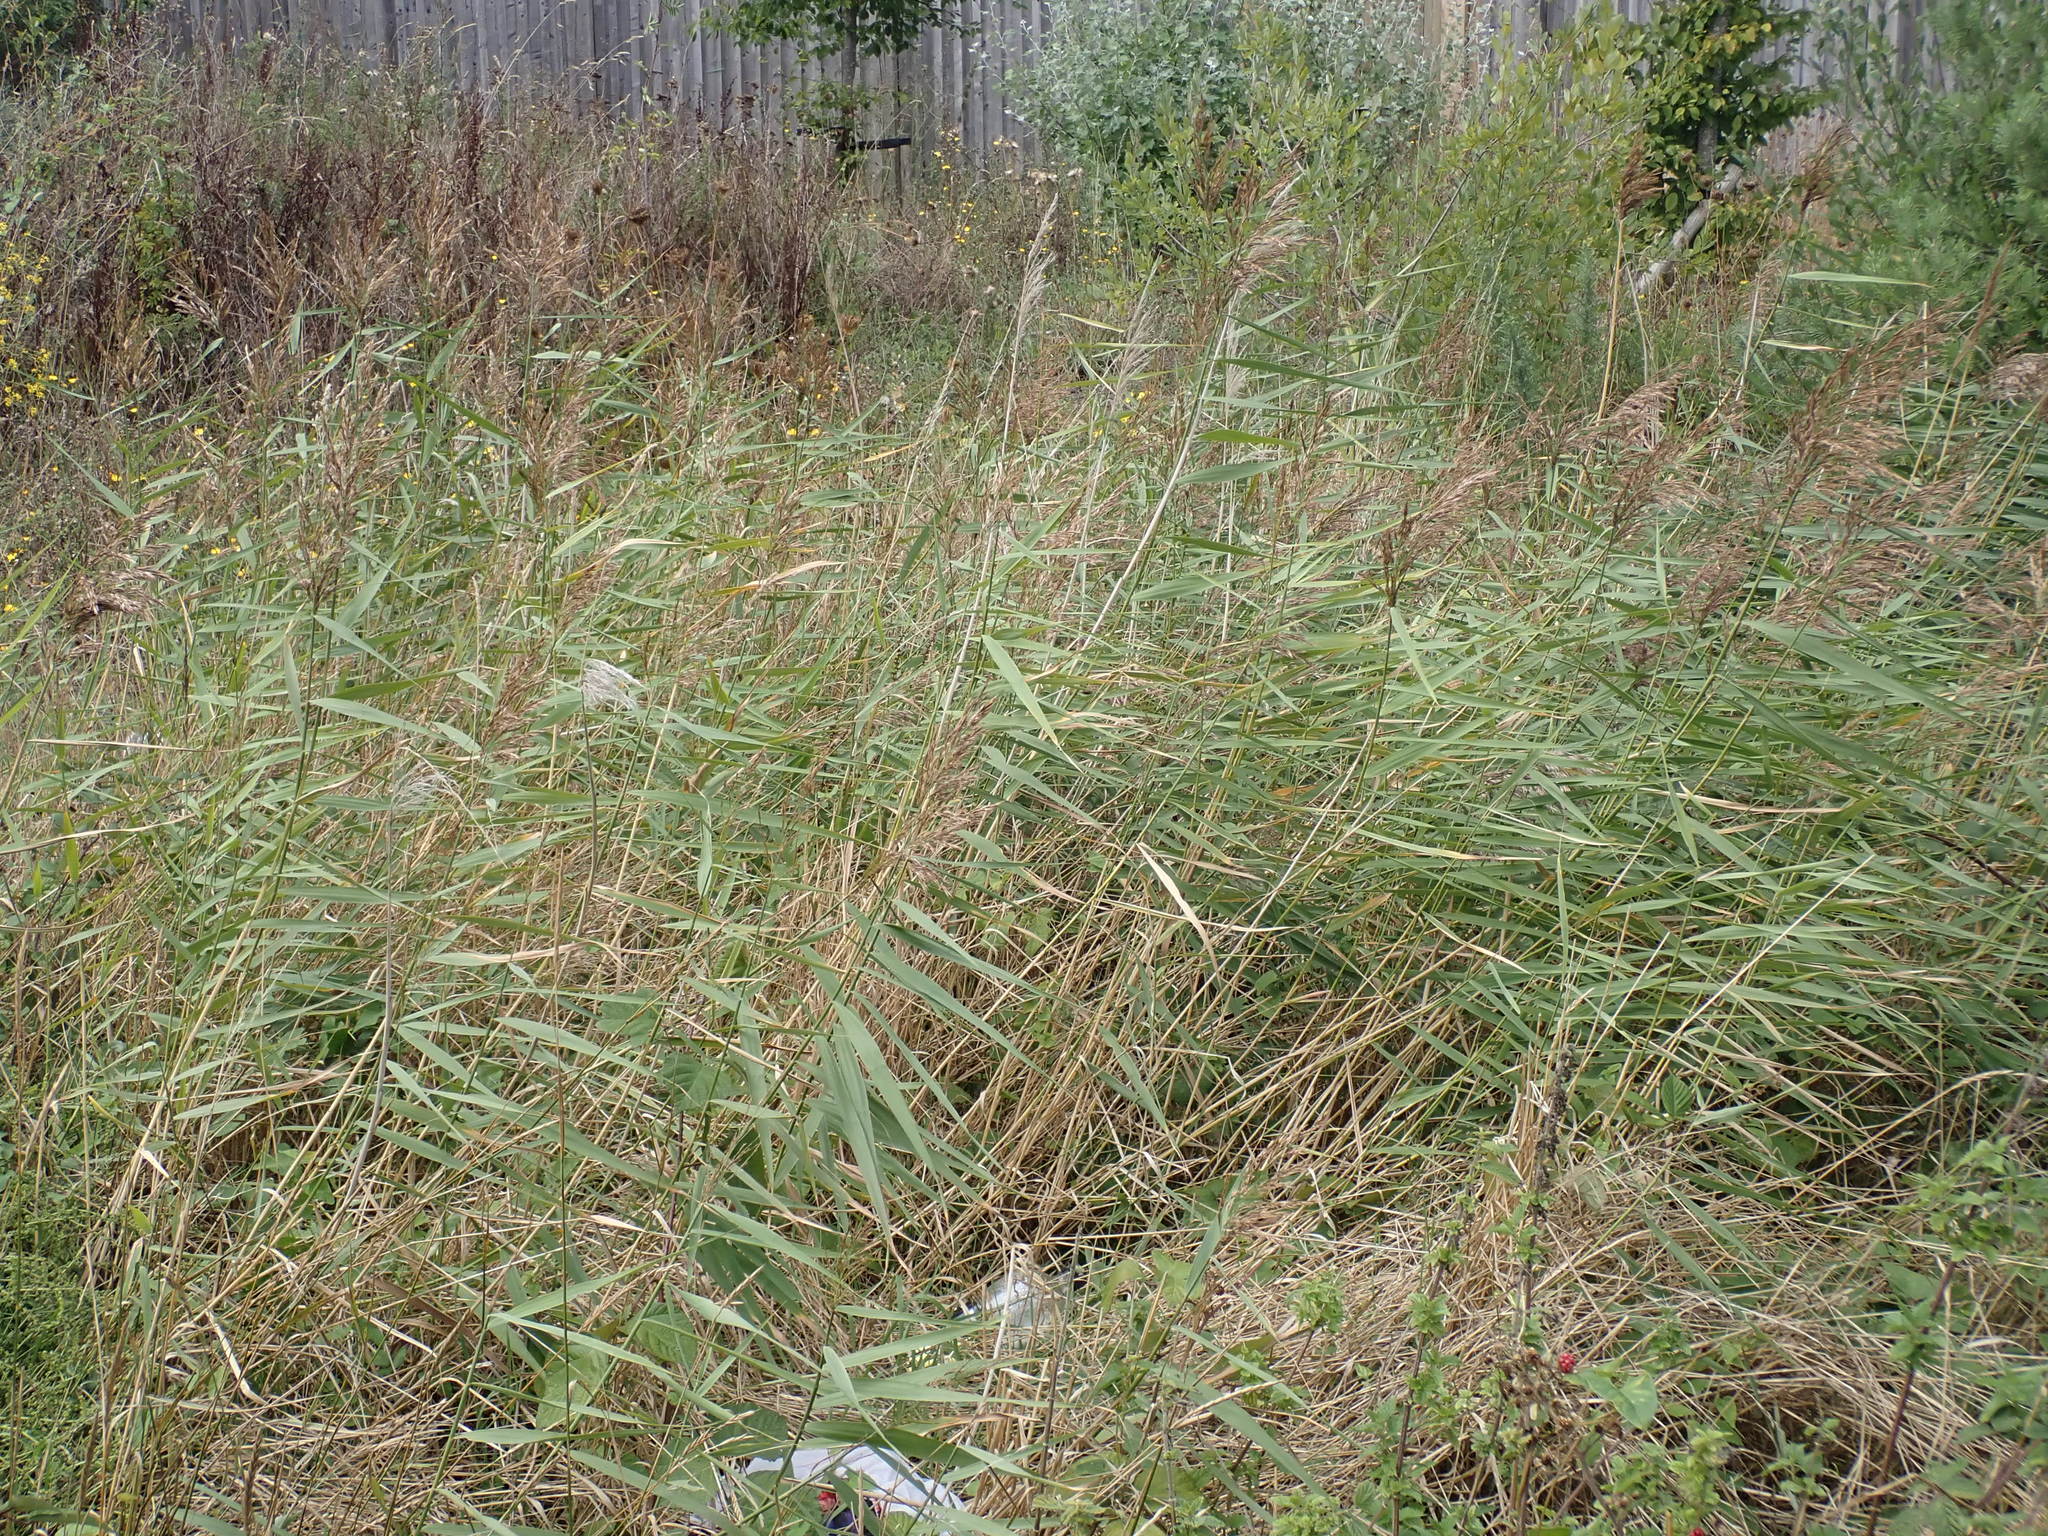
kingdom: Plantae
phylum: Tracheophyta
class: Liliopsida
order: Poales
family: Poaceae
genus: Phragmites
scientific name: Phragmites australis
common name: Common reed
